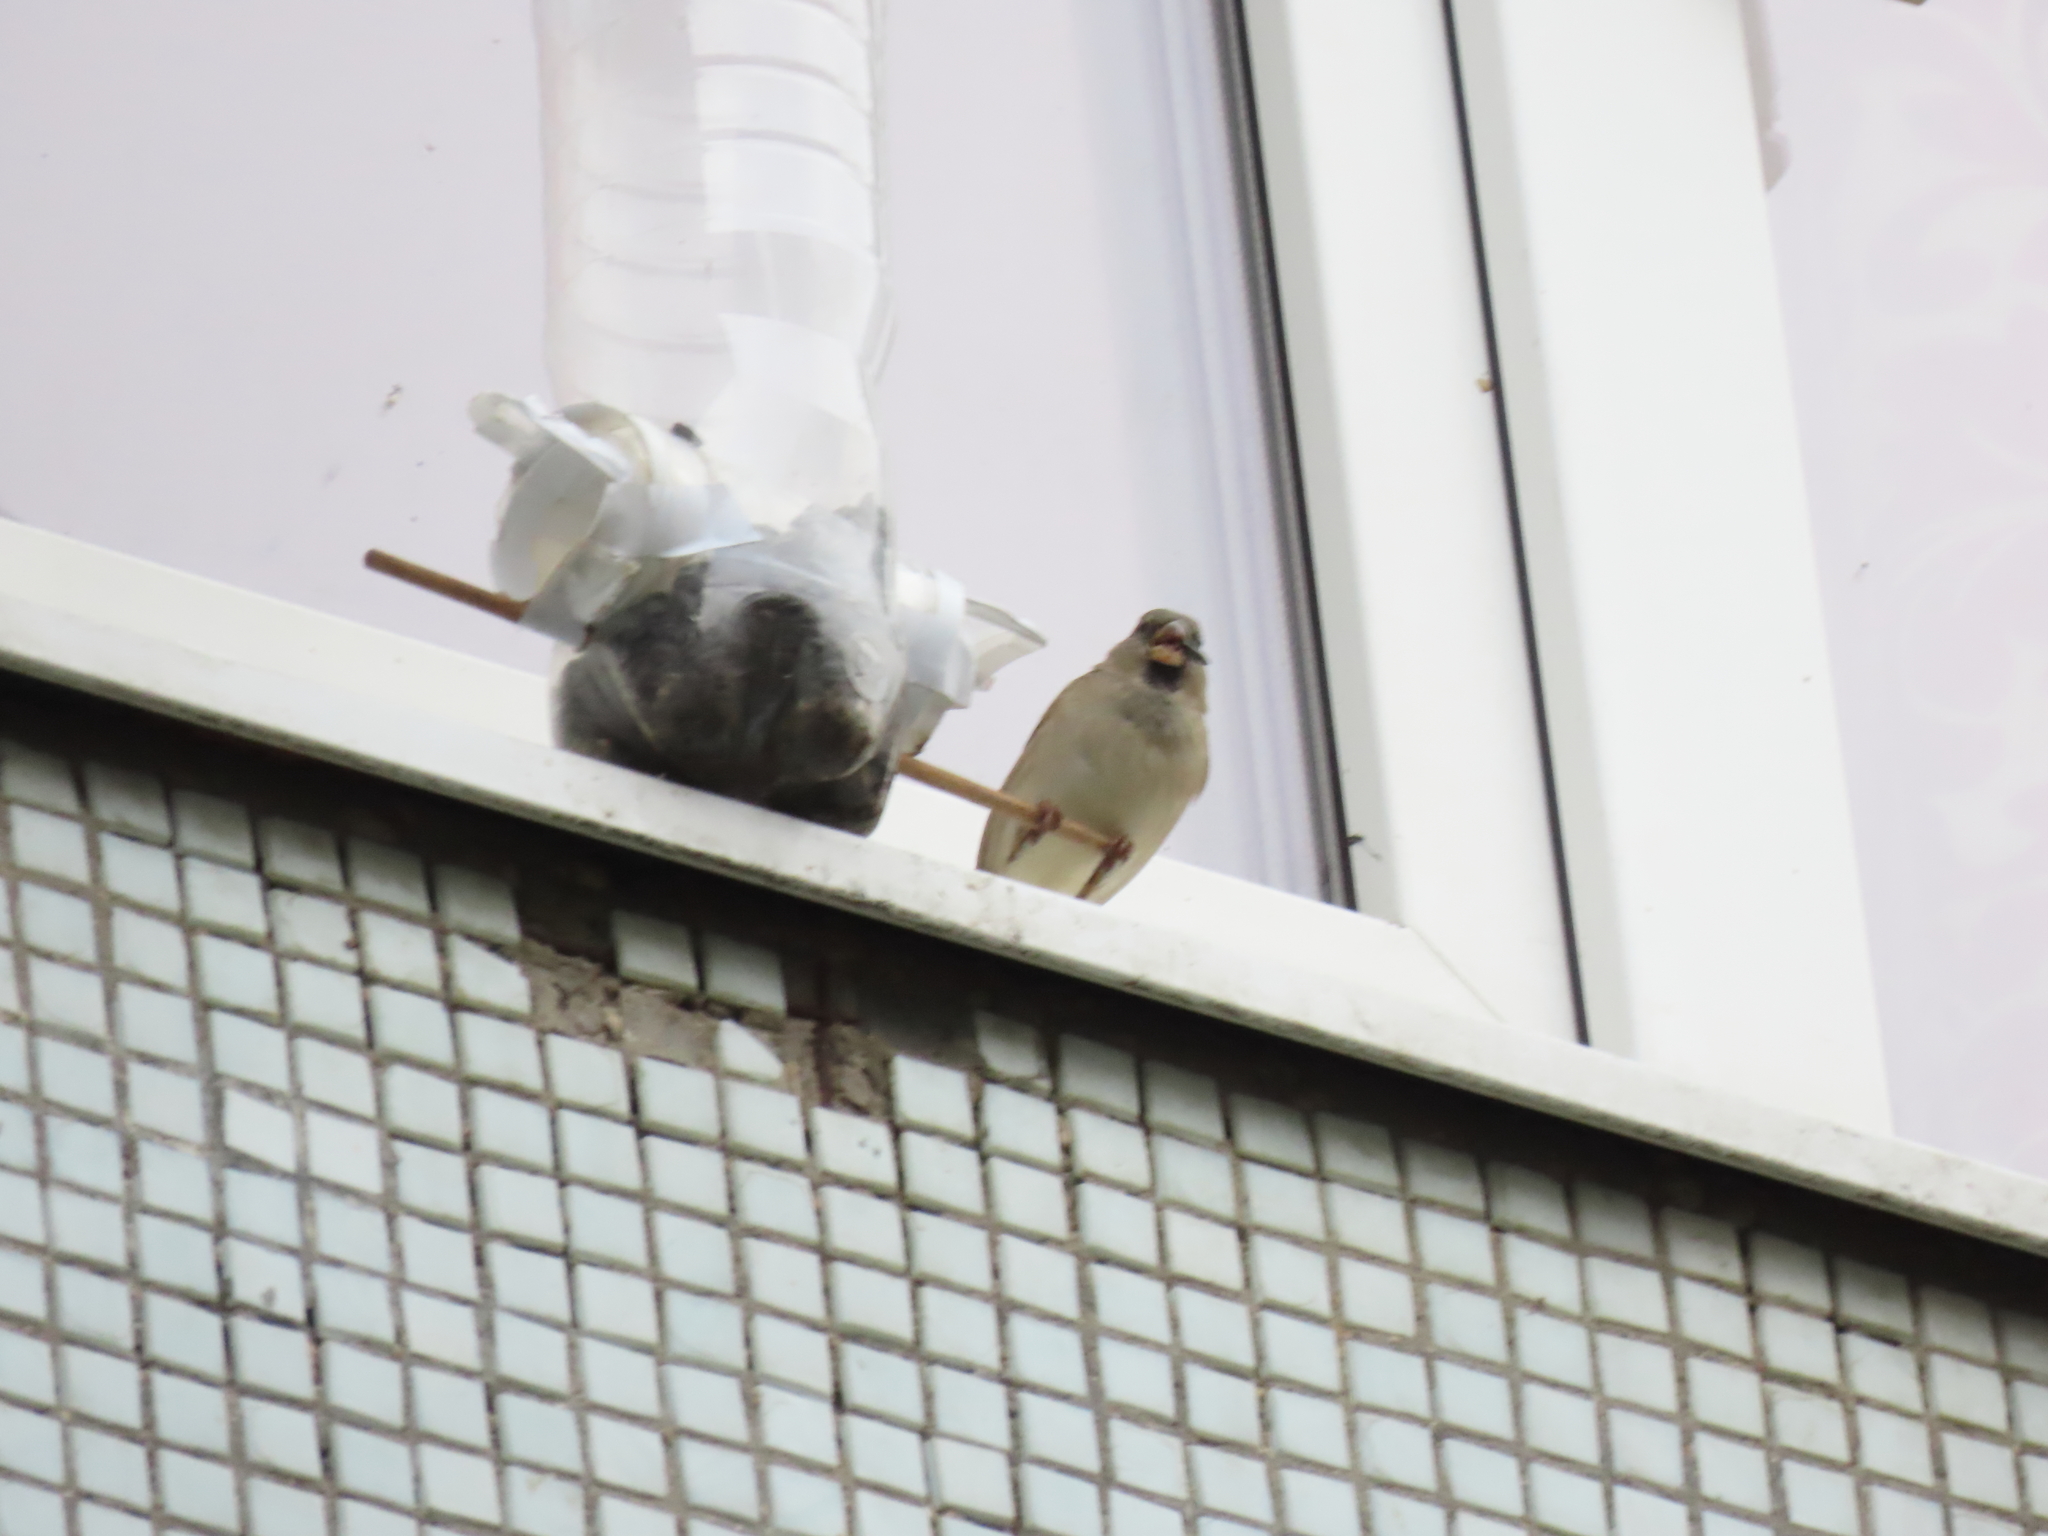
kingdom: Animalia
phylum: Chordata
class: Aves
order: Passeriformes
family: Passeridae
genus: Passer
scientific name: Passer domesticus
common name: House sparrow
